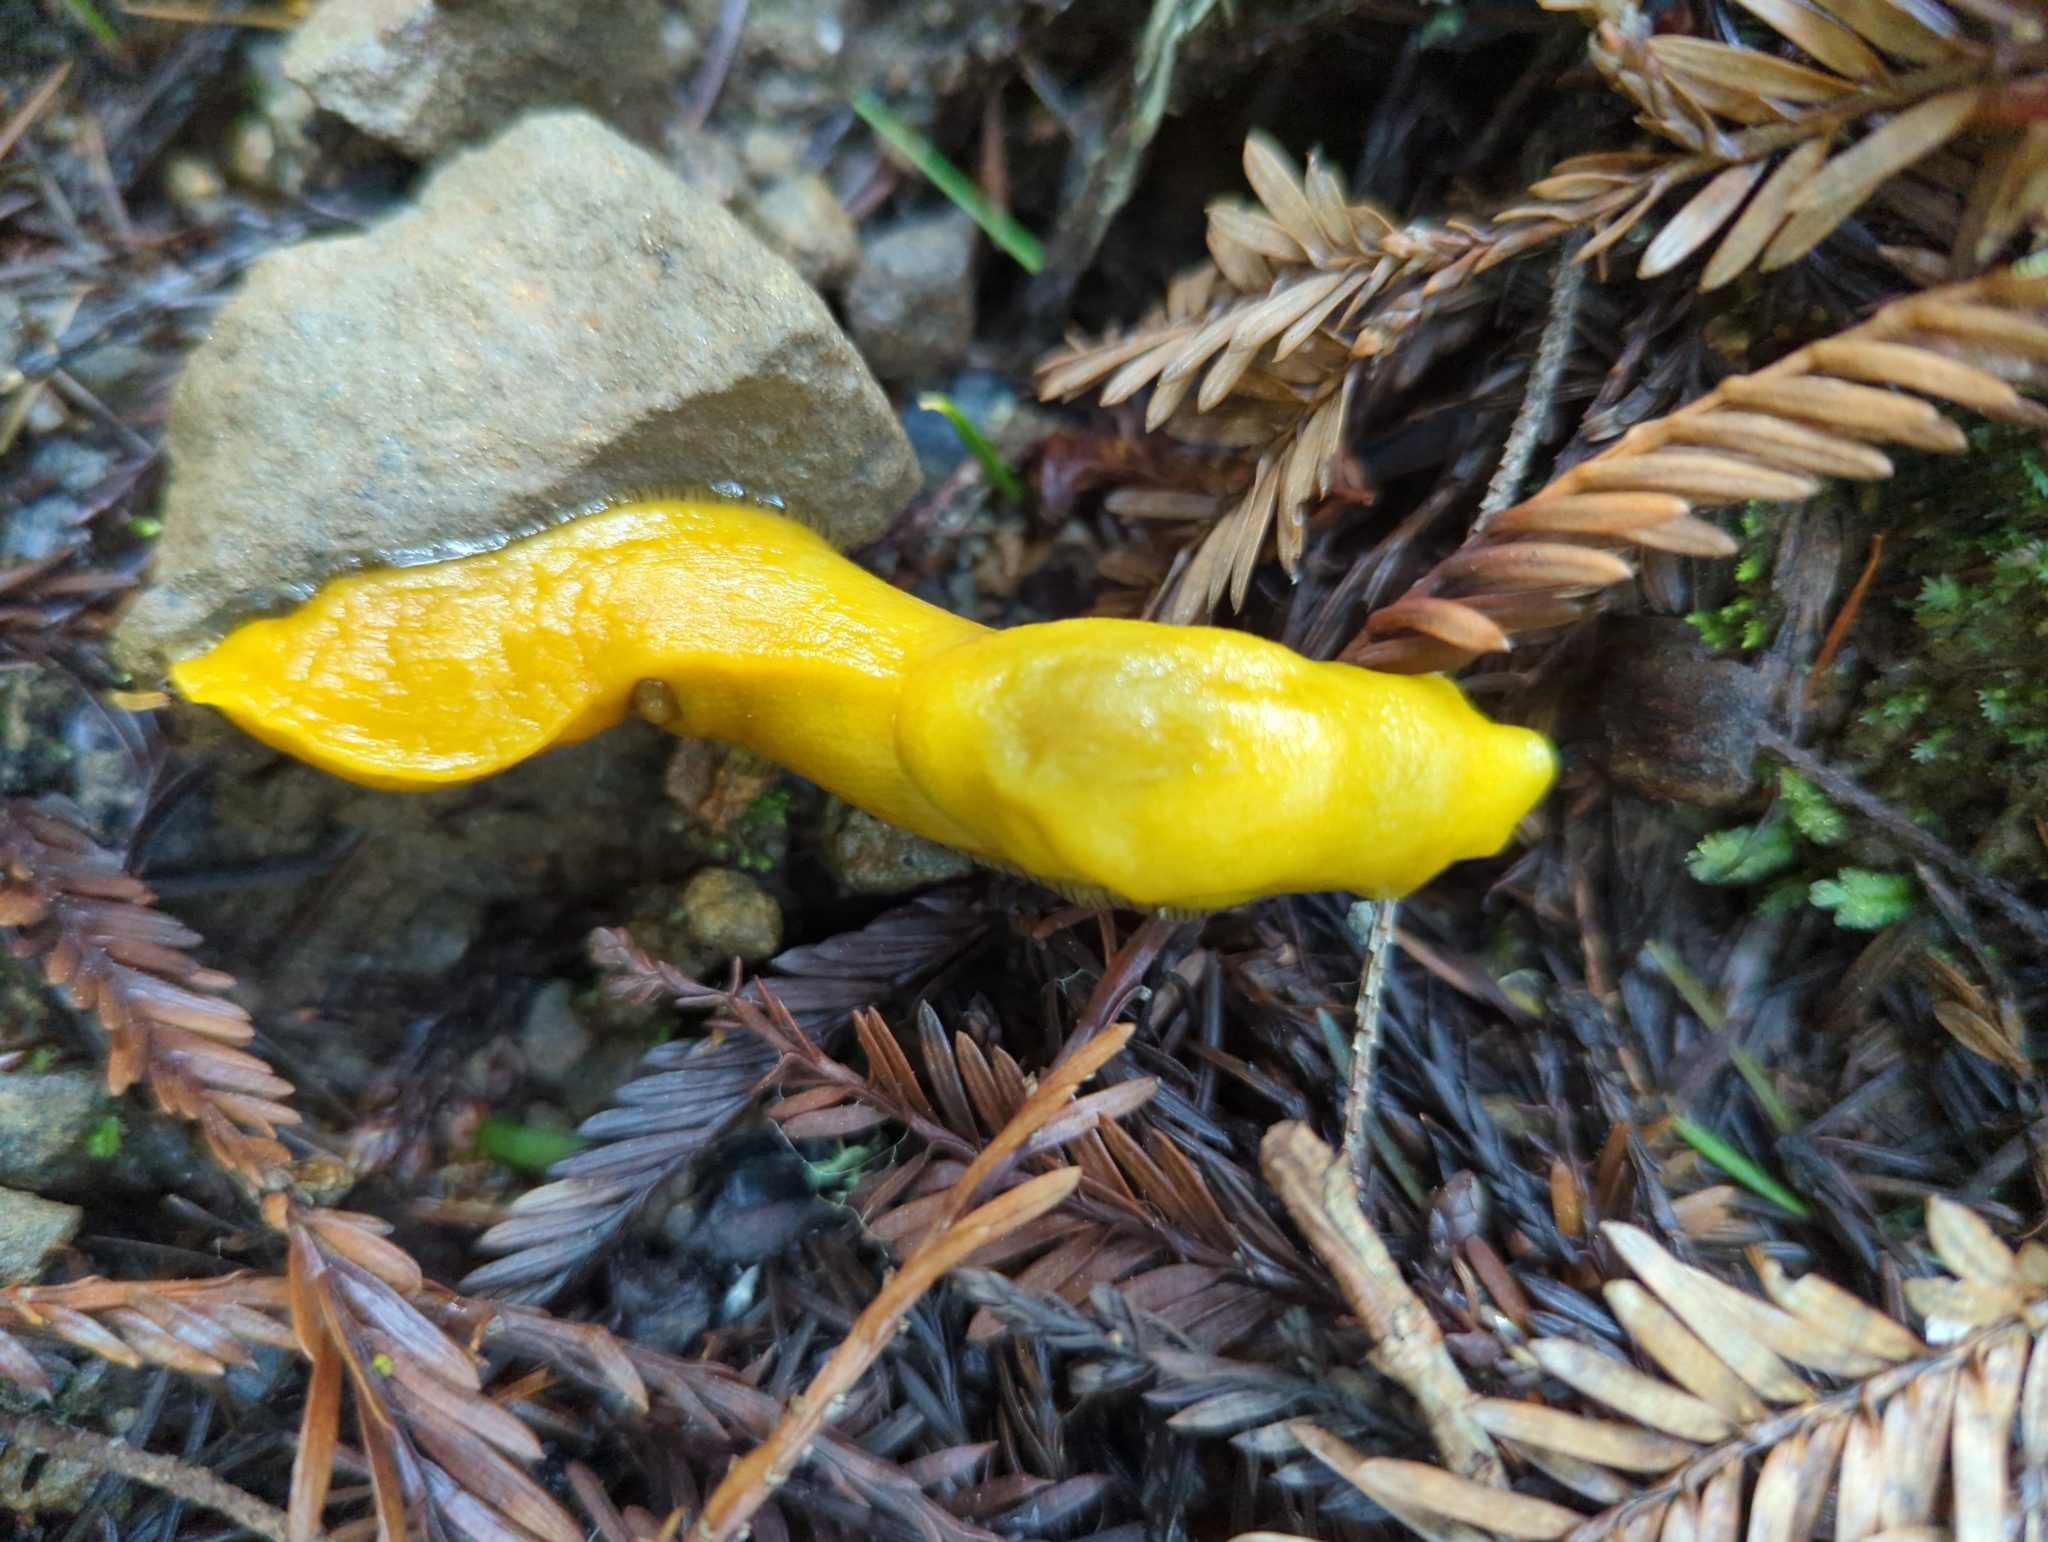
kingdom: Animalia
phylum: Mollusca
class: Gastropoda
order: Stylommatophora
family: Ariolimacidae
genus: Ariolimax
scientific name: Ariolimax dolichophallus
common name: Slender banana slug
